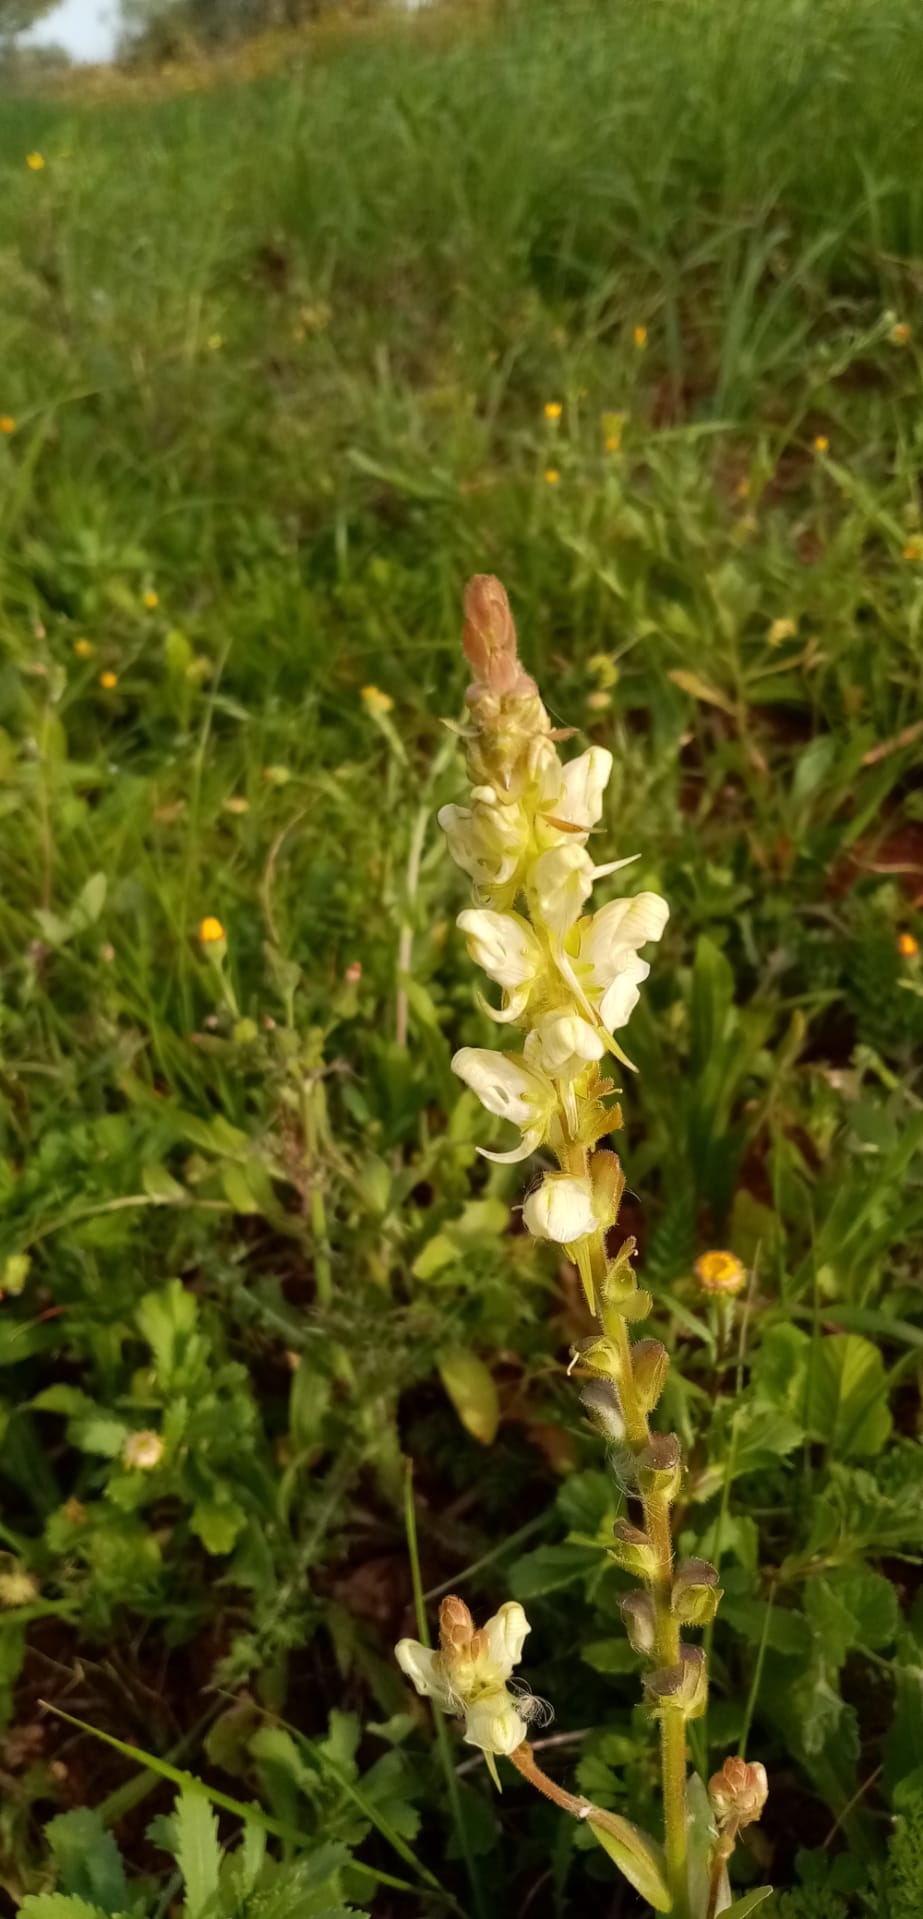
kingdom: Plantae
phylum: Tracheophyta
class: Magnoliopsida
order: Lamiales
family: Plantaginaceae
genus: Linaria
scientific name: Linaria hirta
